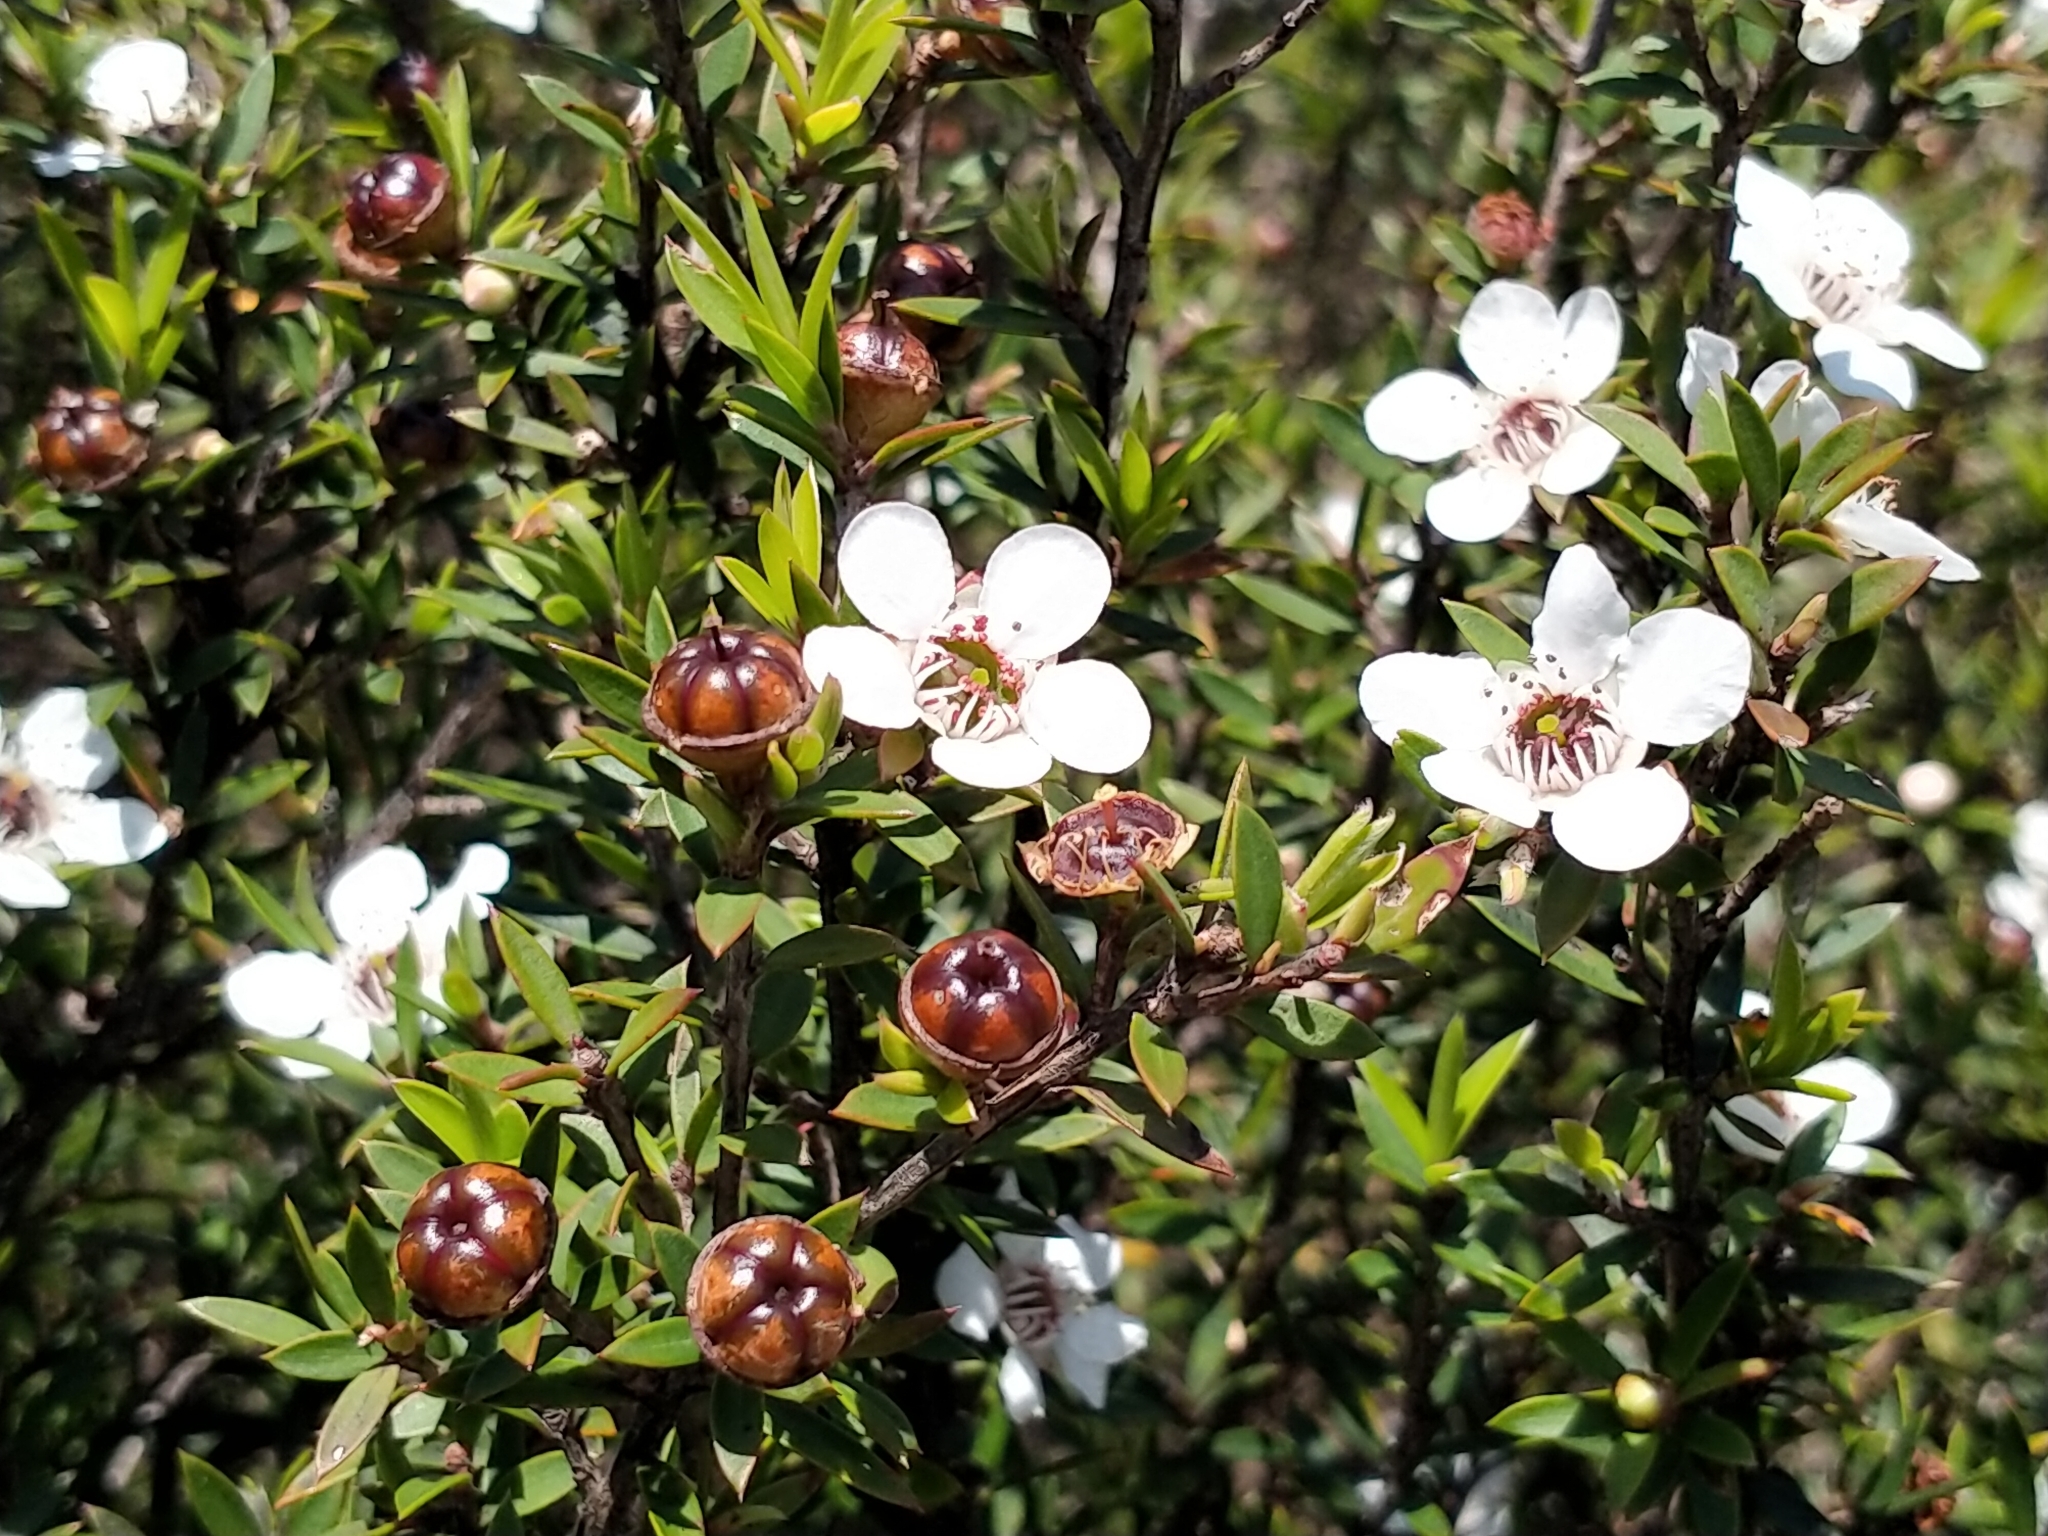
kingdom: Plantae
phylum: Tracheophyta
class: Magnoliopsida
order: Myrtales
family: Myrtaceae
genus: Leptospermum
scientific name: Leptospermum scoparium
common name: Broom tea-tree
